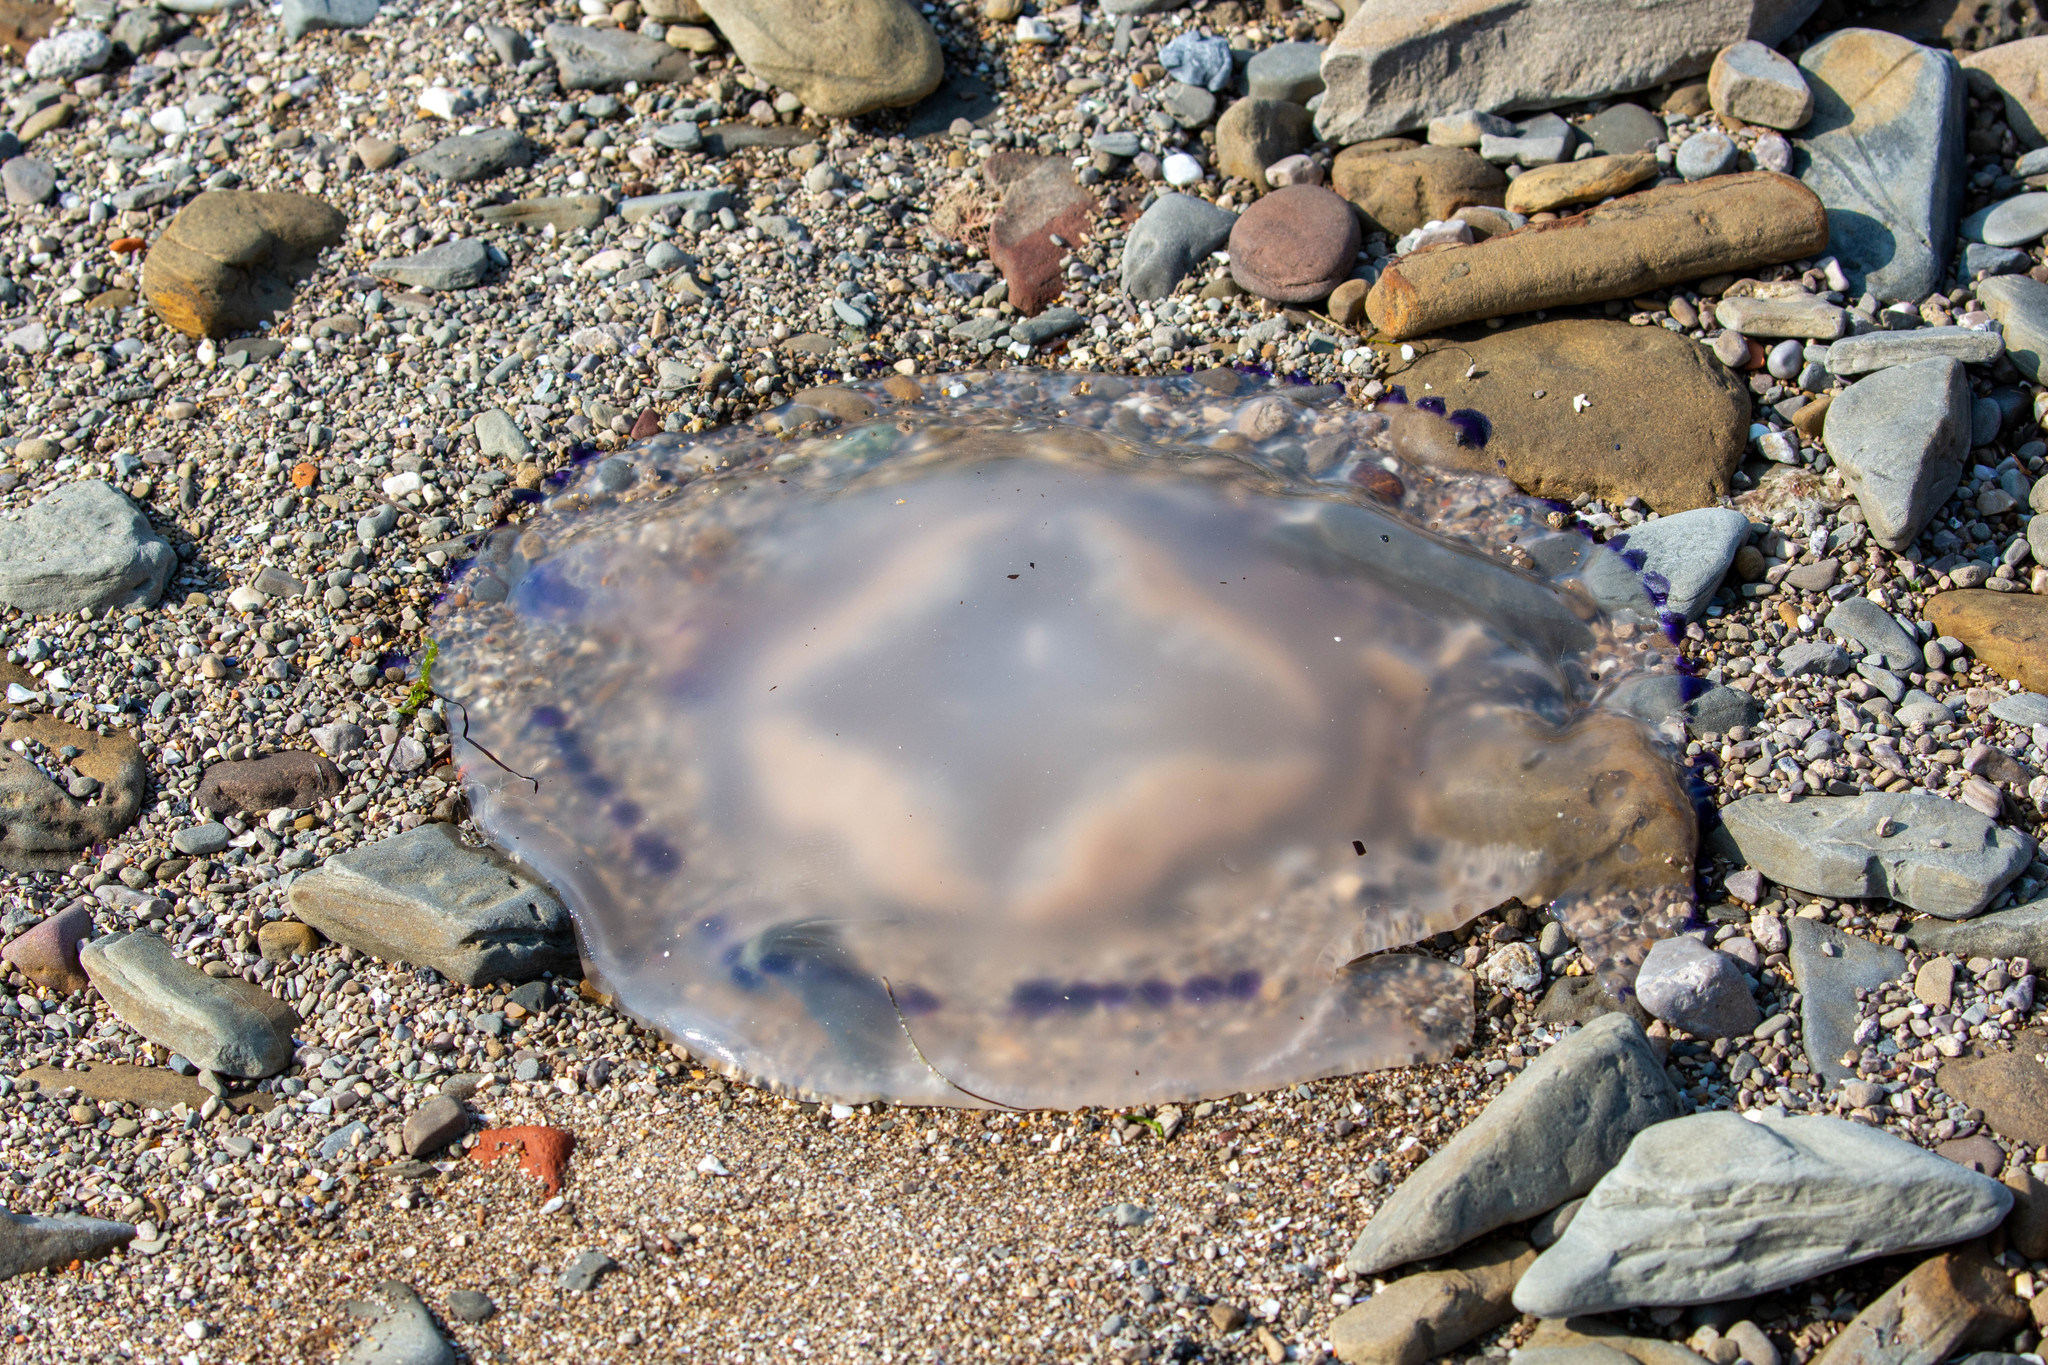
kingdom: Animalia
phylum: Cnidaria
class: Scyphozoa
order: Rhizostomeae
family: Rhizostomatidae
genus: Rhizostoma
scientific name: Rhizostoma pulmo
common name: Barrel jellyfish
